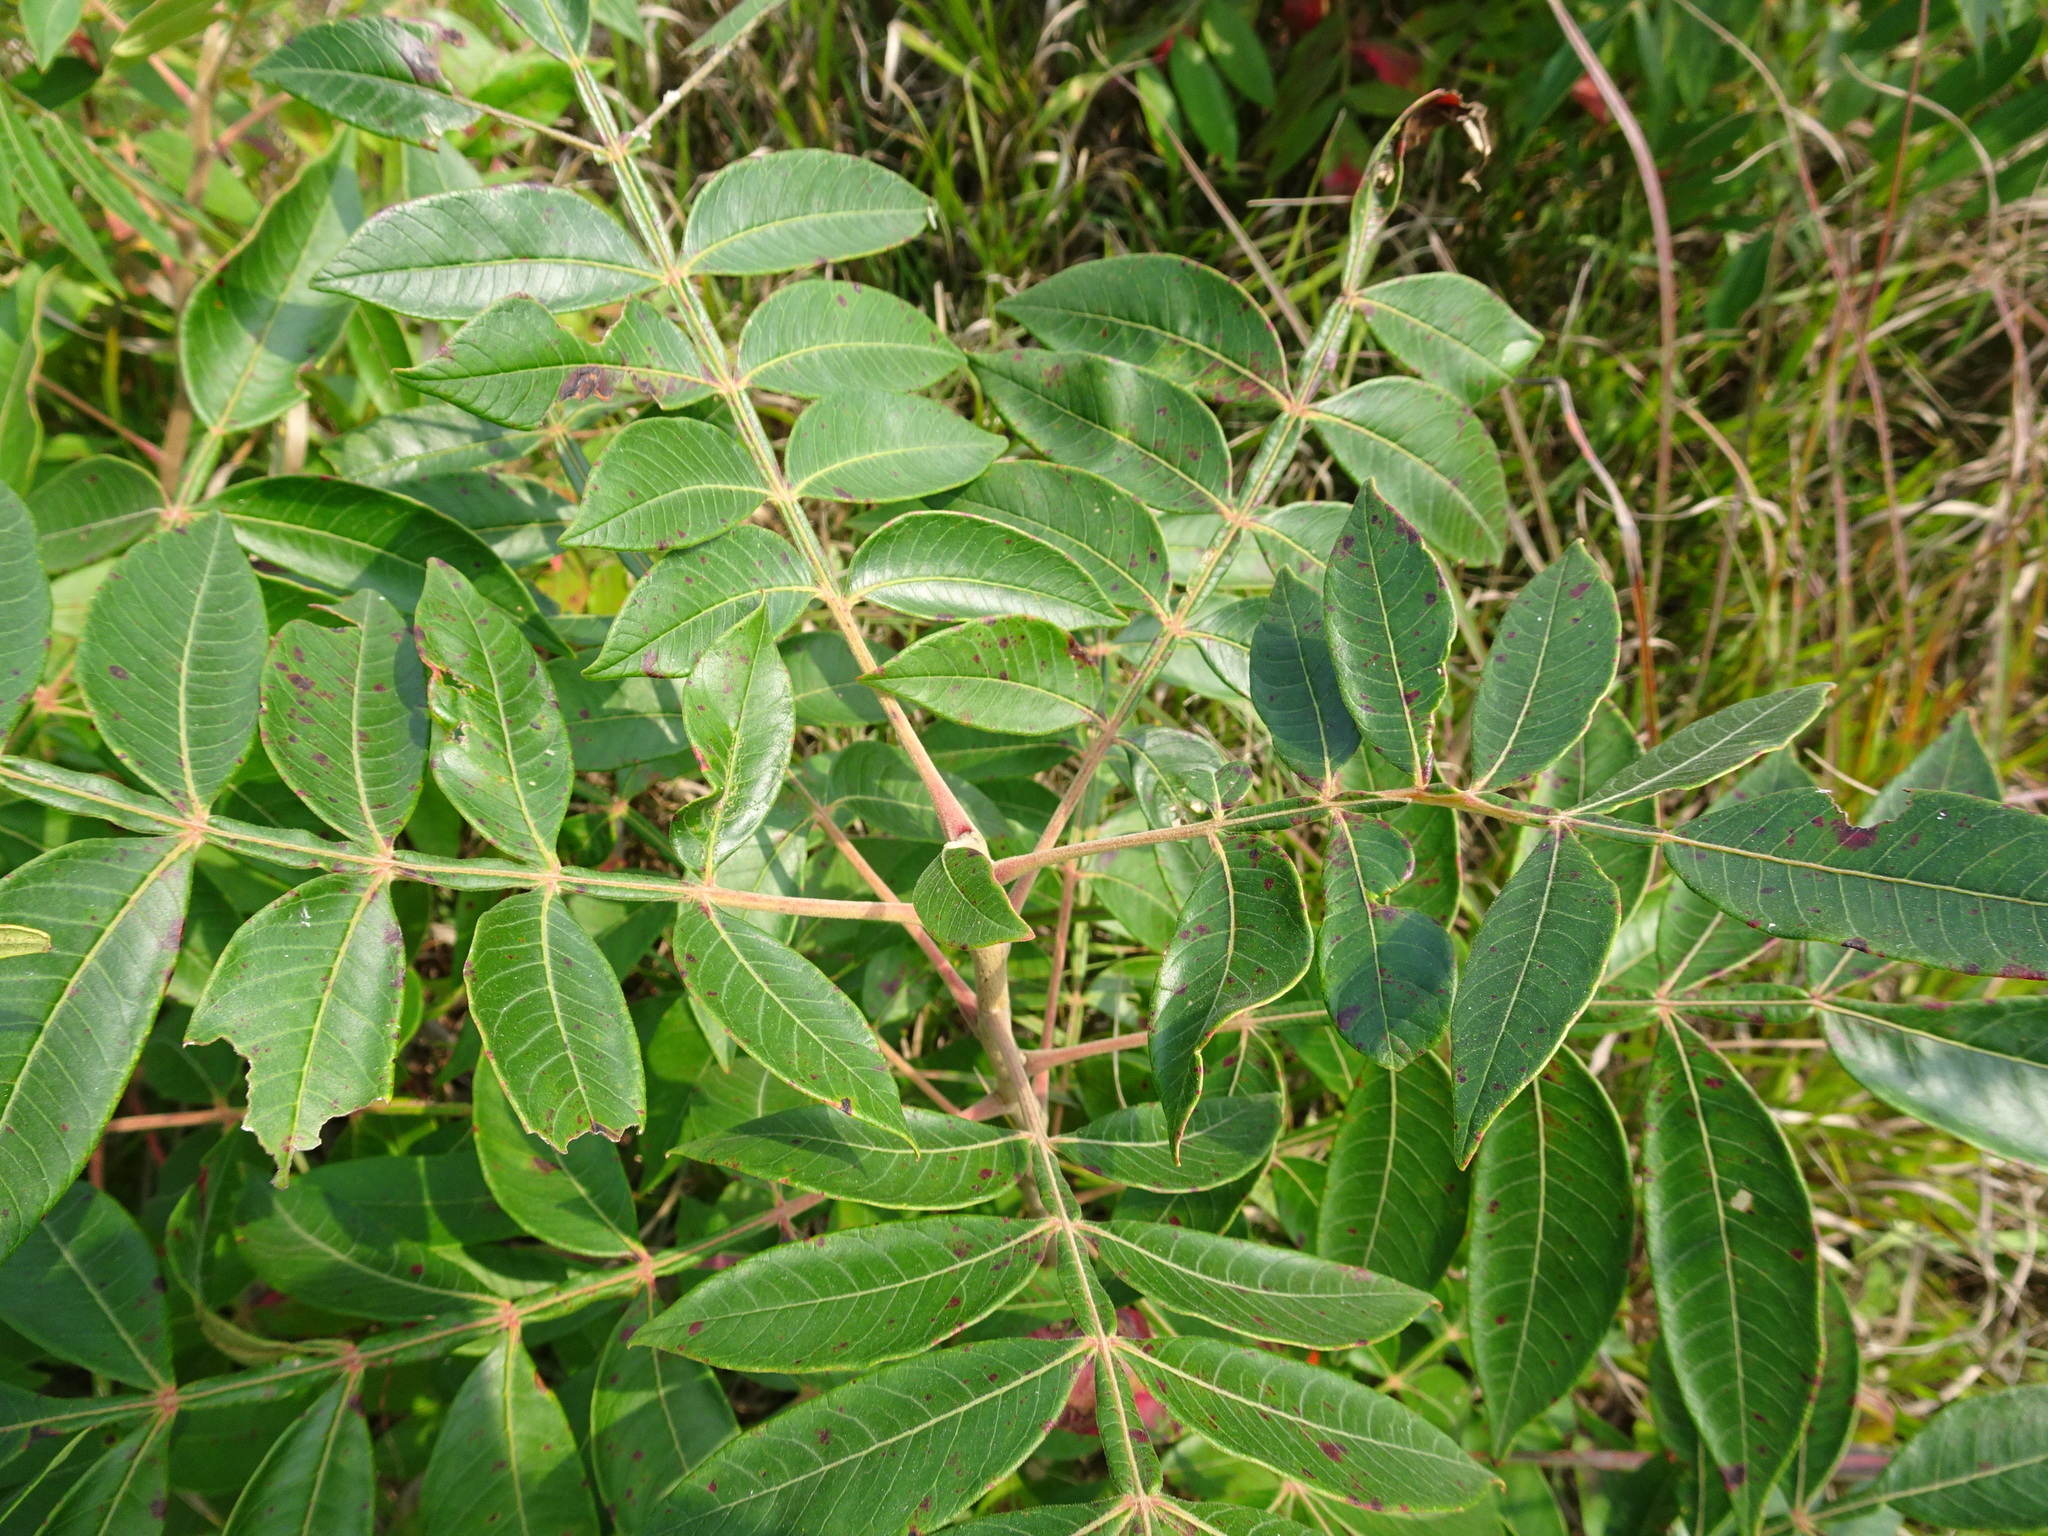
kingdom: Plantae
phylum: Tracheophyta
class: Magnoliopsida
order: Sapindales
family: Anacardiaceae
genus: Rhus
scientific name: Rhus copallina
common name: Shining sumac
